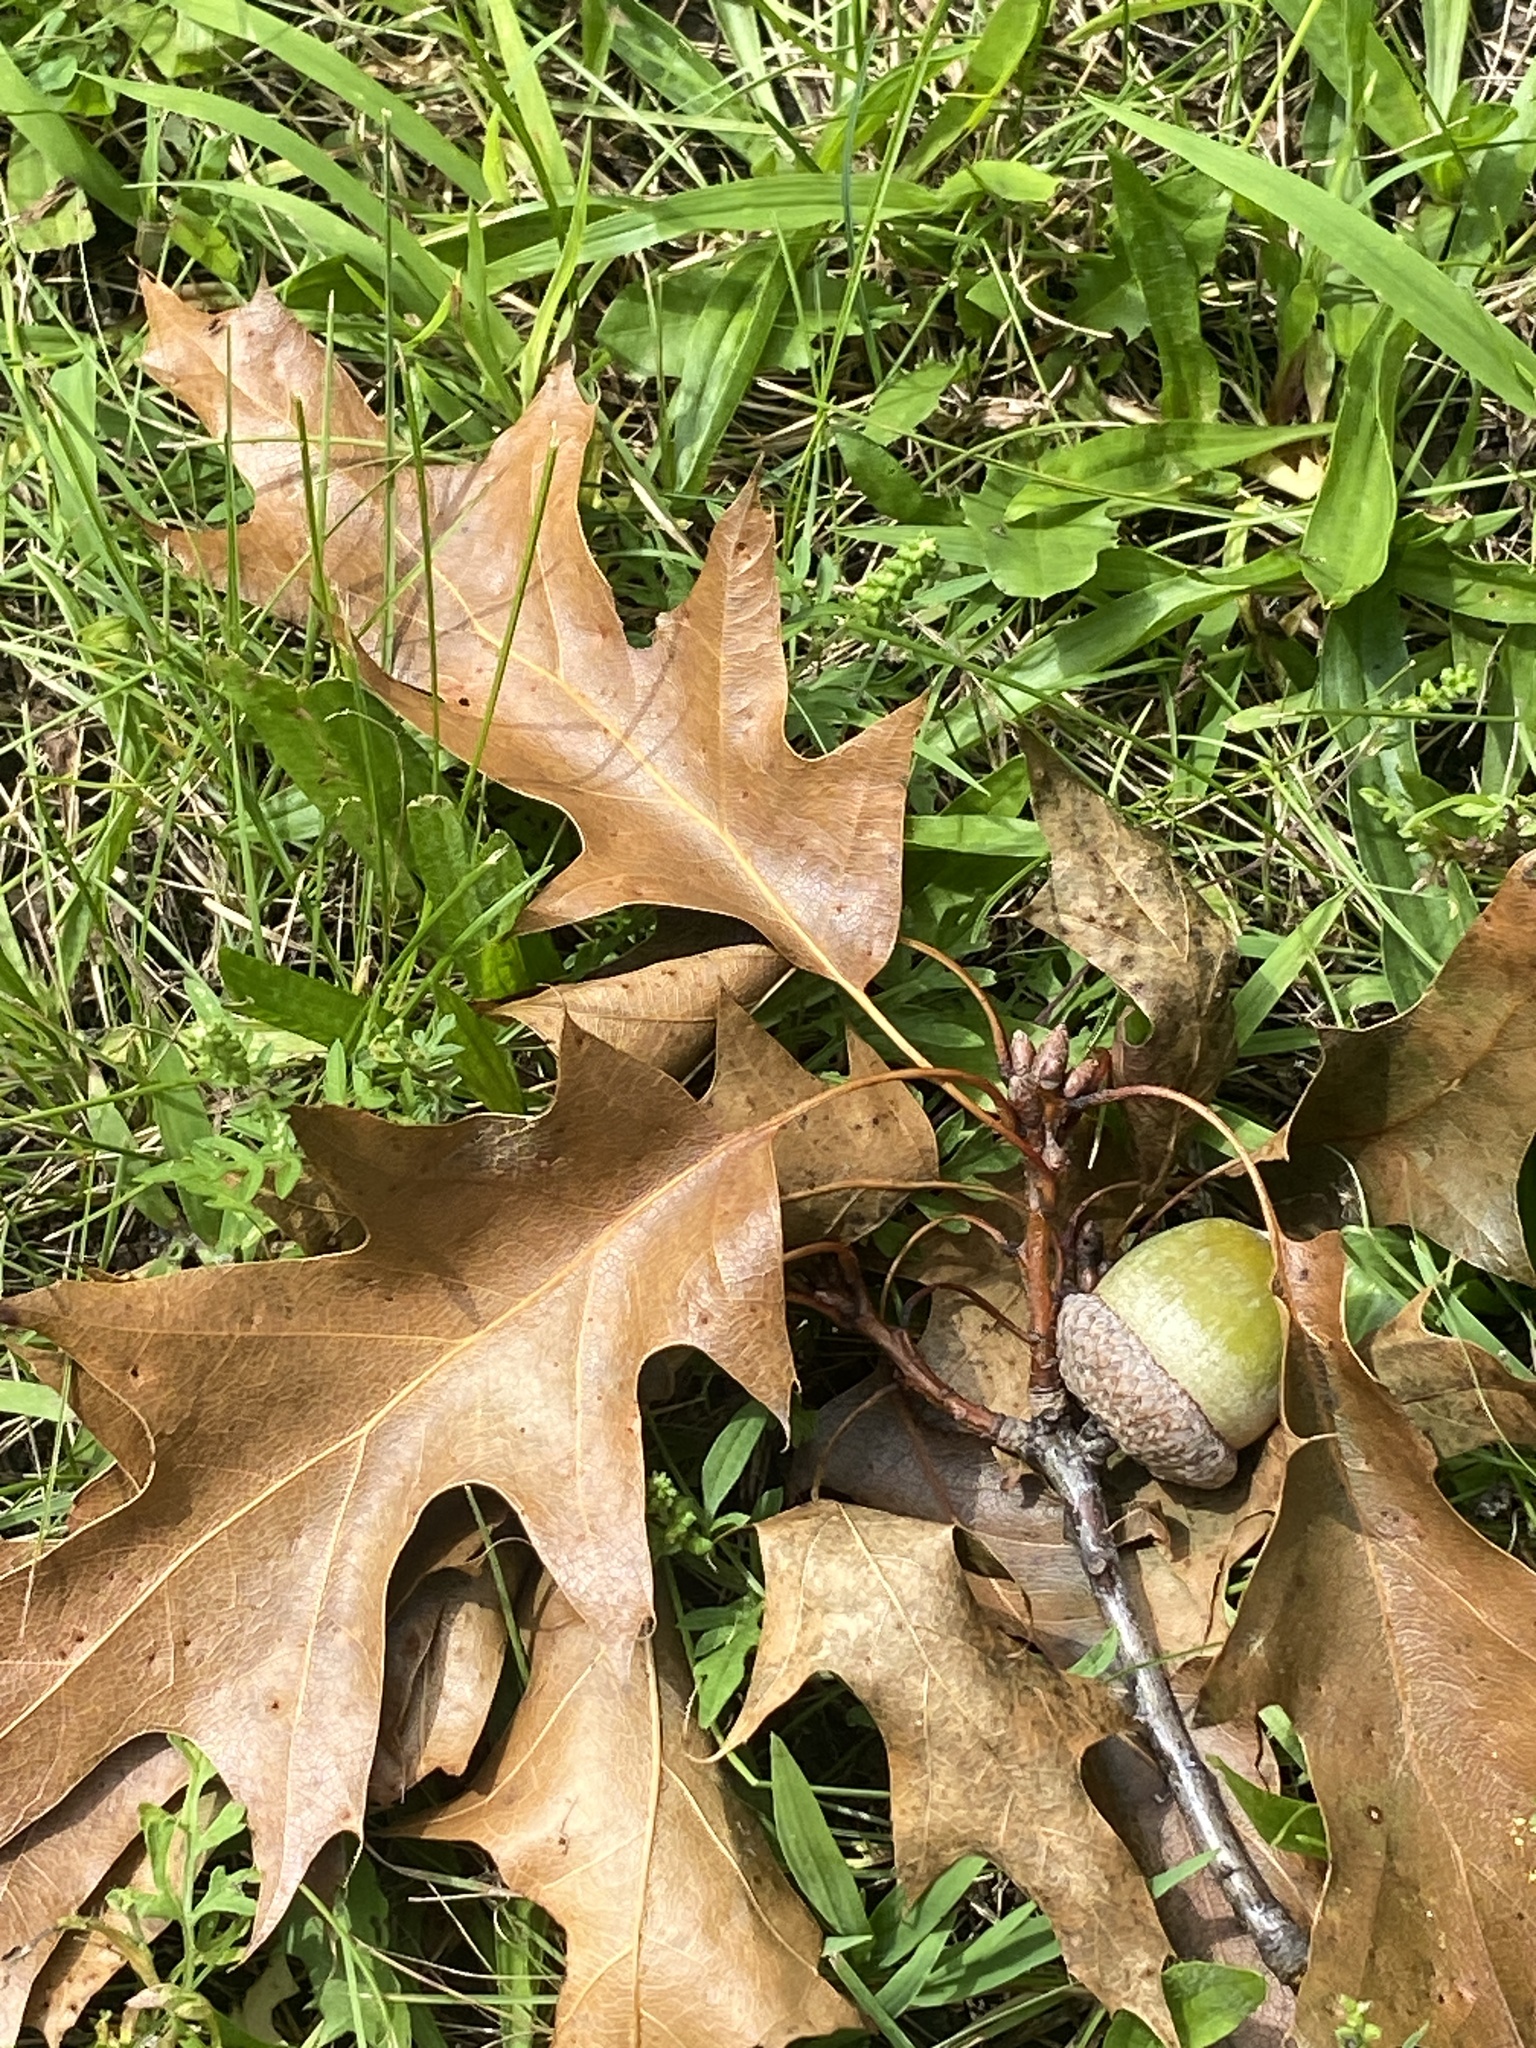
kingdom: Plantae
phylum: Tracheophyta
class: Magnoliopsida
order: Fagales
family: Fagaceae
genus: Quercus
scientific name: Quercus rubra
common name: Red oak
